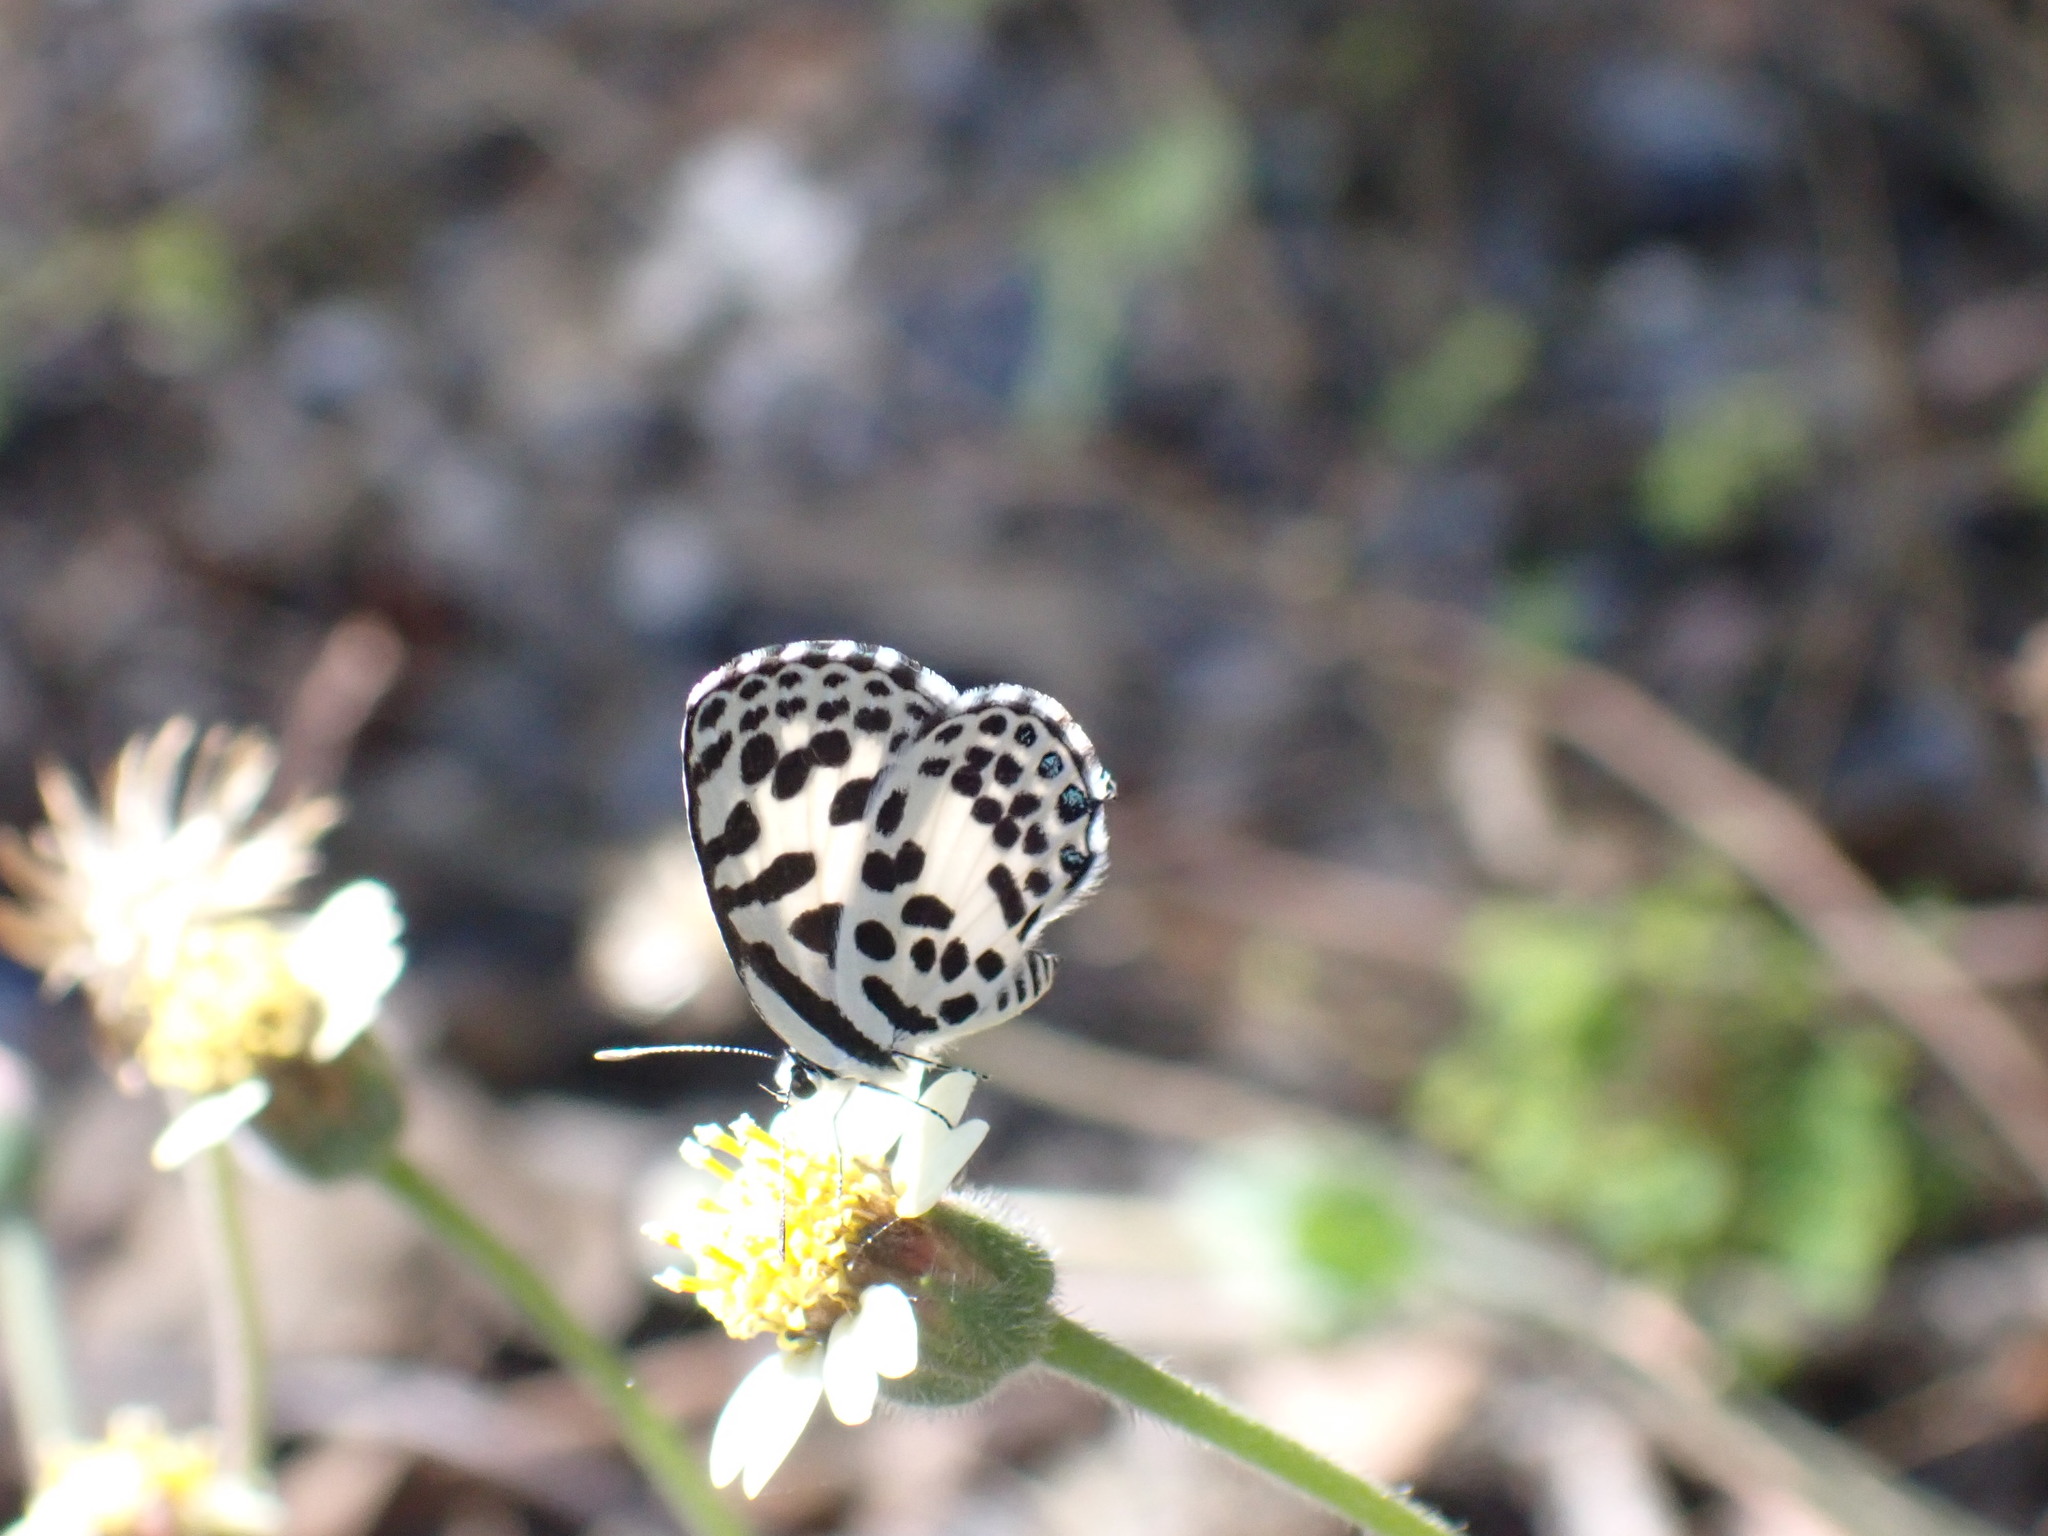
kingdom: Animalia
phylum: Arthropoda
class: Insecta
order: Lepidoptera
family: Lycaenidae
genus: Castalius
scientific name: Castalius rosimon
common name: Common pierrot
